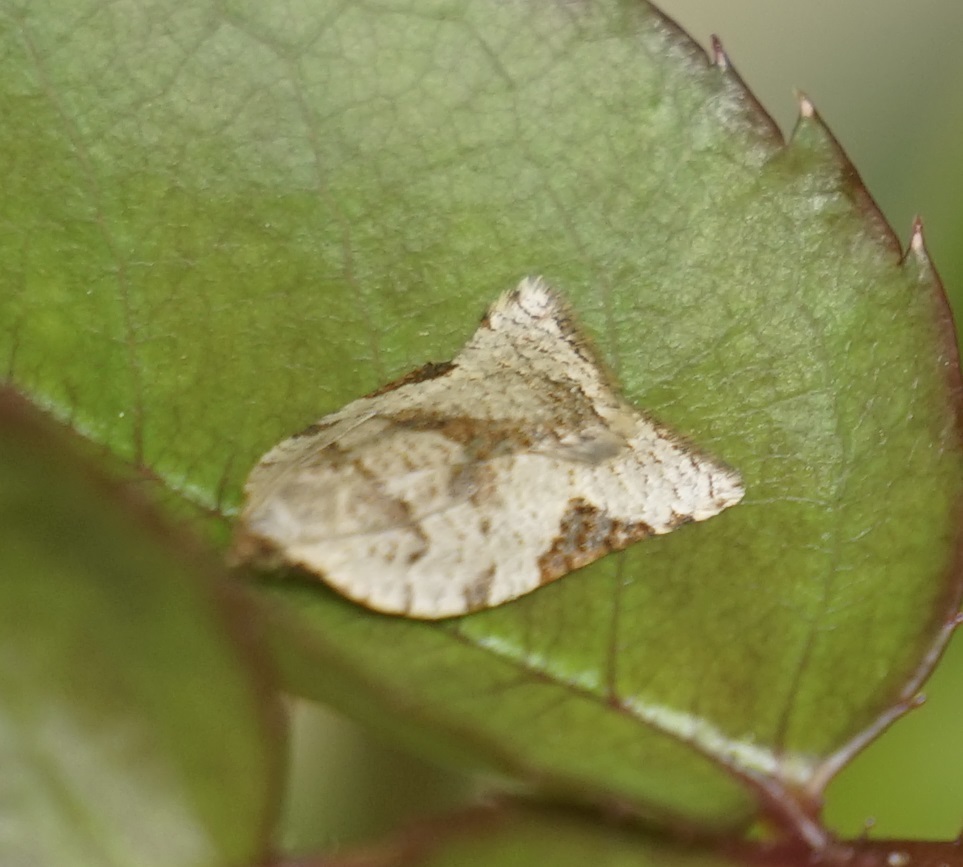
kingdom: Animalia
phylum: Arthropoda
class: Insecta
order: Lepidoptera
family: Tortricidae
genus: Anisogona
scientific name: Anisogona similana
